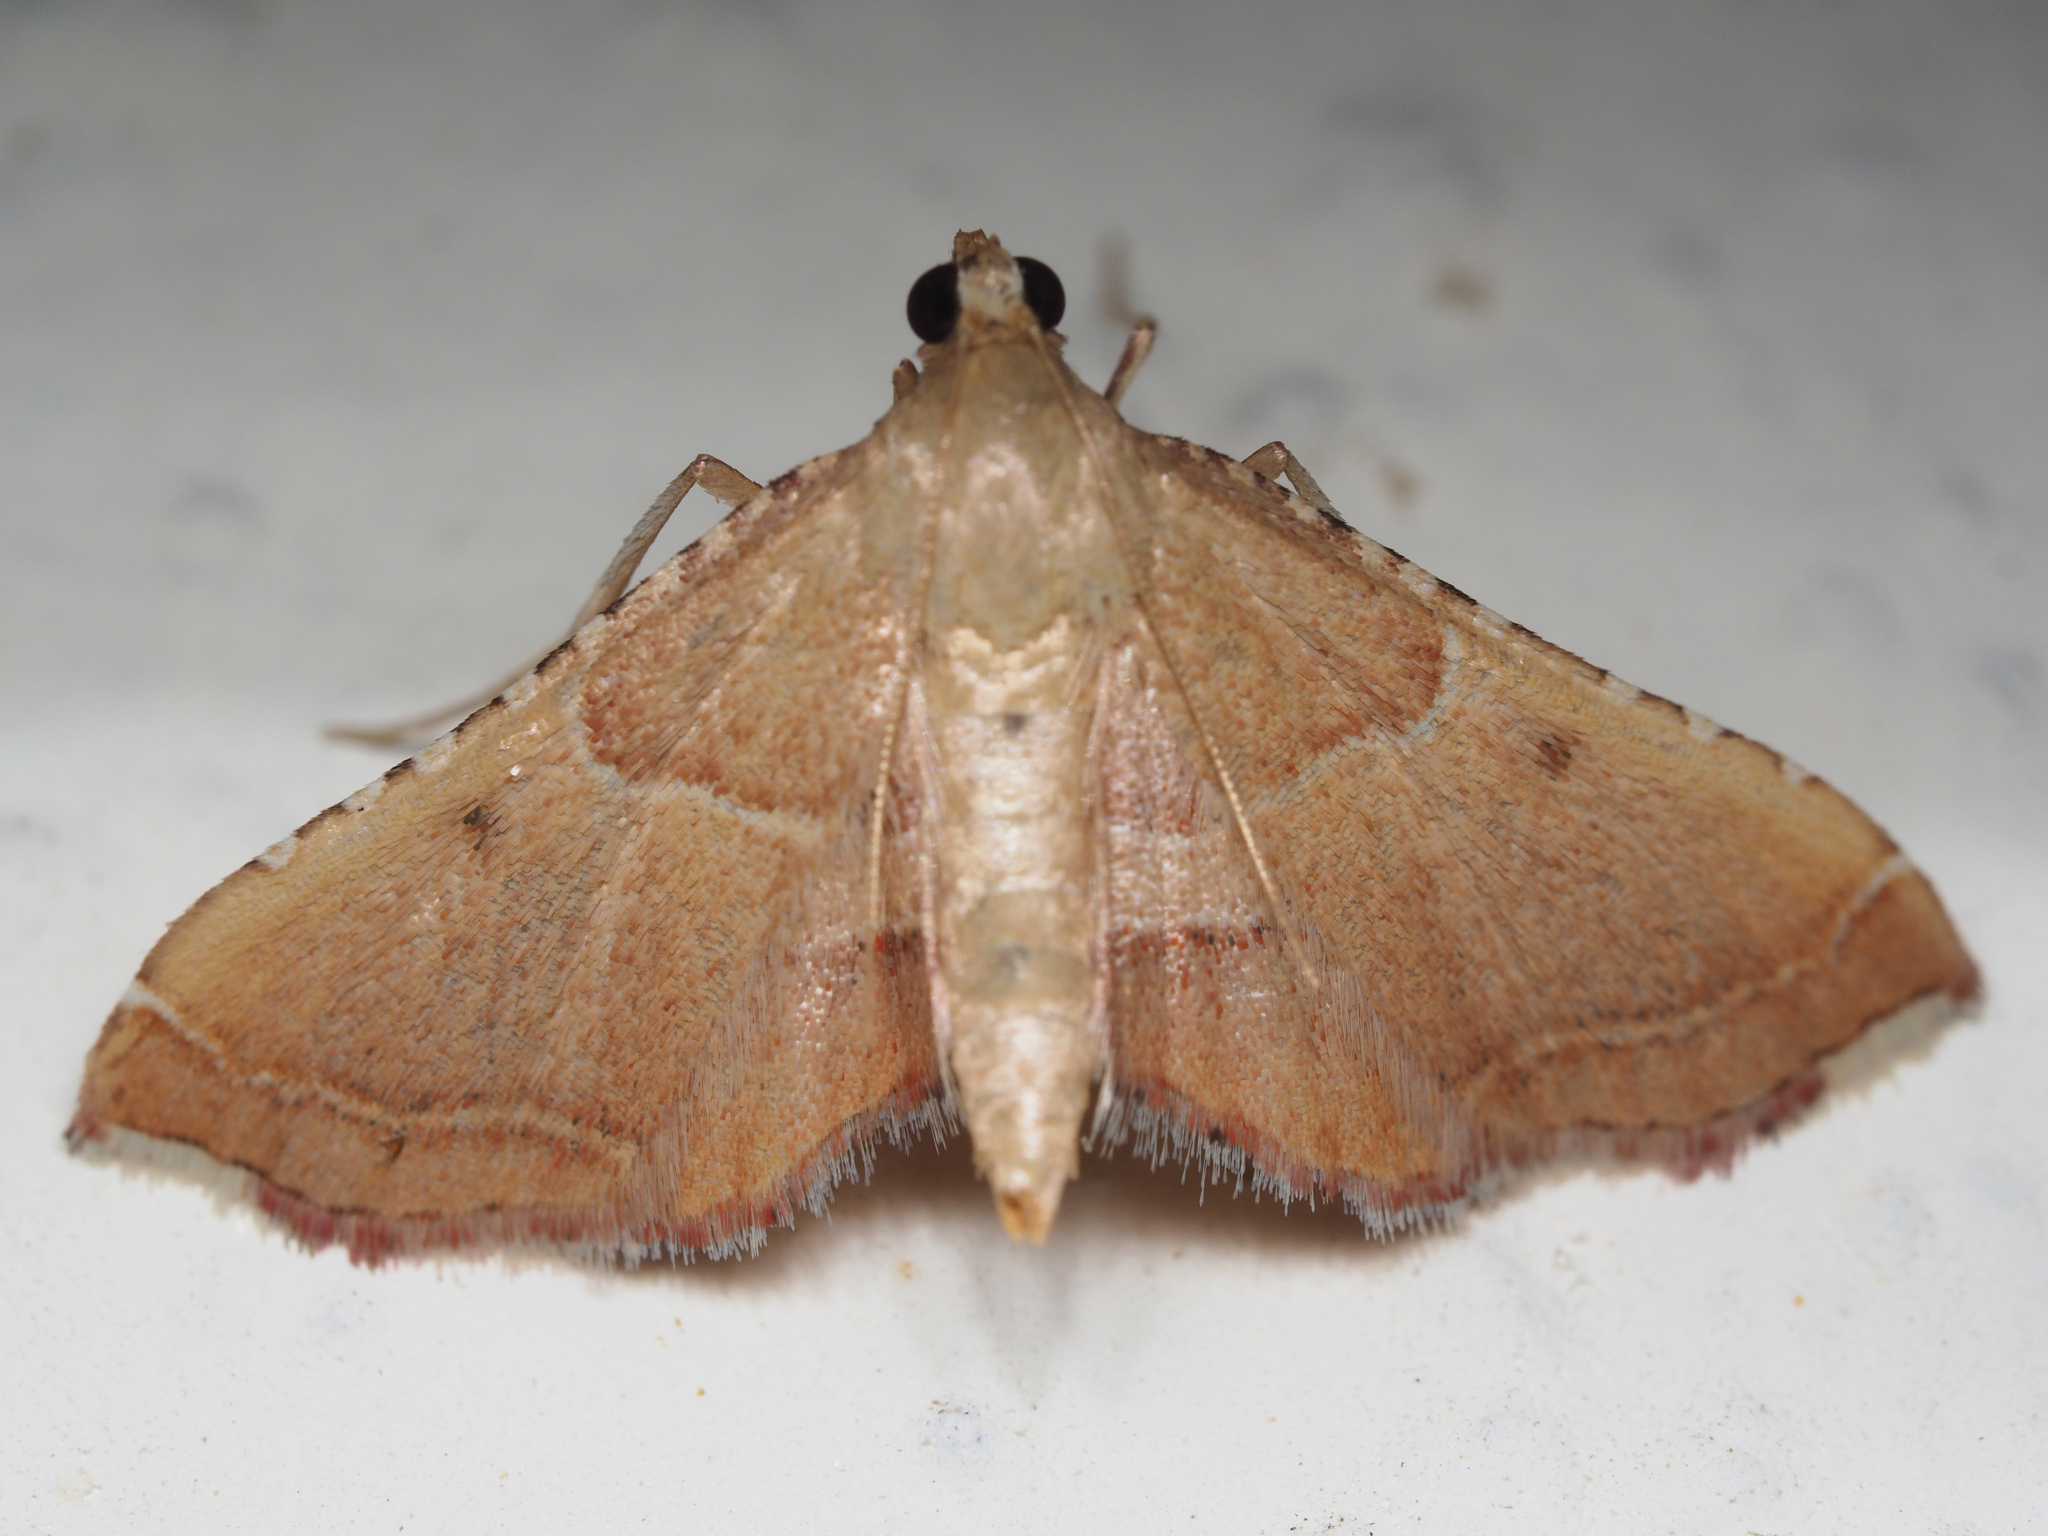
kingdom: Animalia
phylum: Arthropoda
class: Insecta
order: Lepidoptera
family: Pyralidae
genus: Endotricha
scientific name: Endotricha flammealis
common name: Rosy tabby
